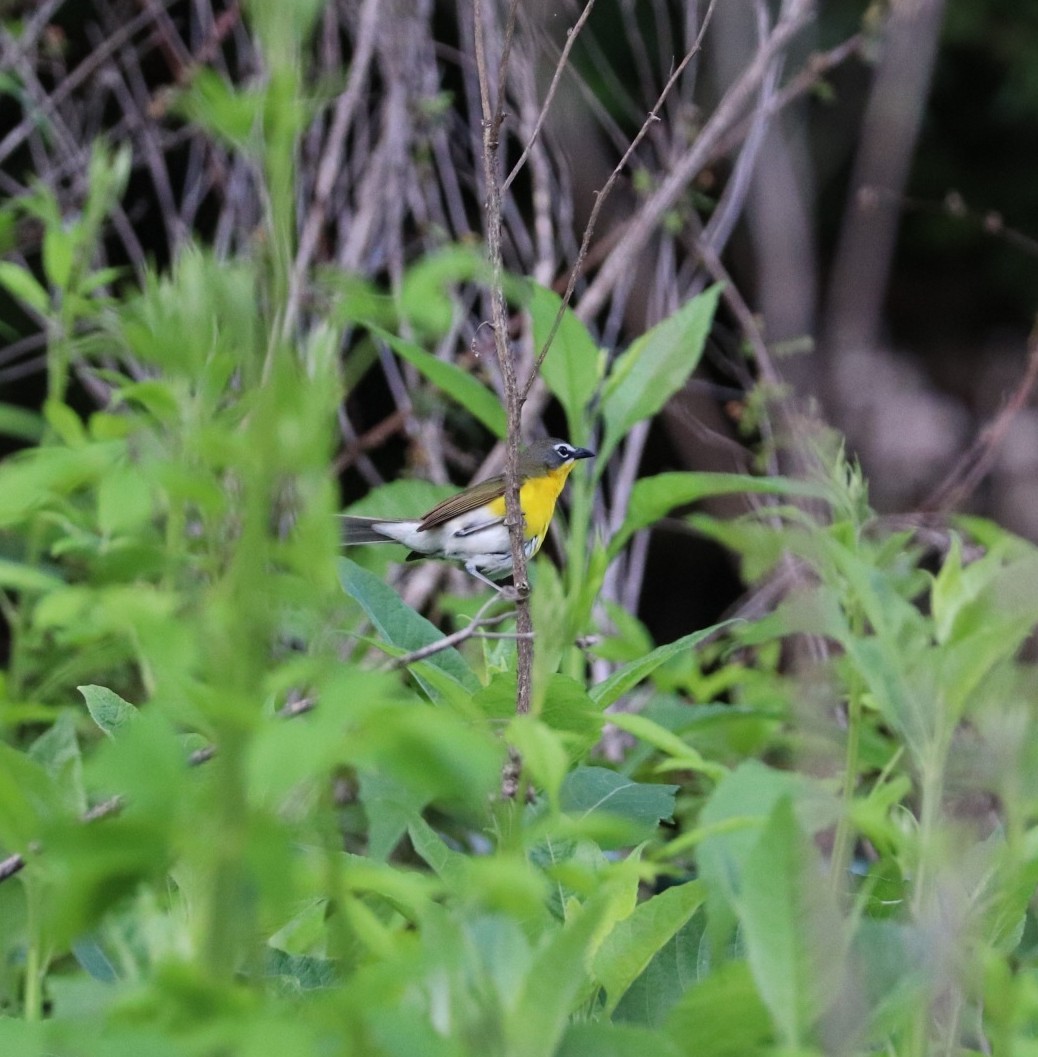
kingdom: Animalia
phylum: Chordata
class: Aves
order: Passeriformes
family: Parulidae
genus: Icteria
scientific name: Icteria virens
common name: Yellow-breasted chat
